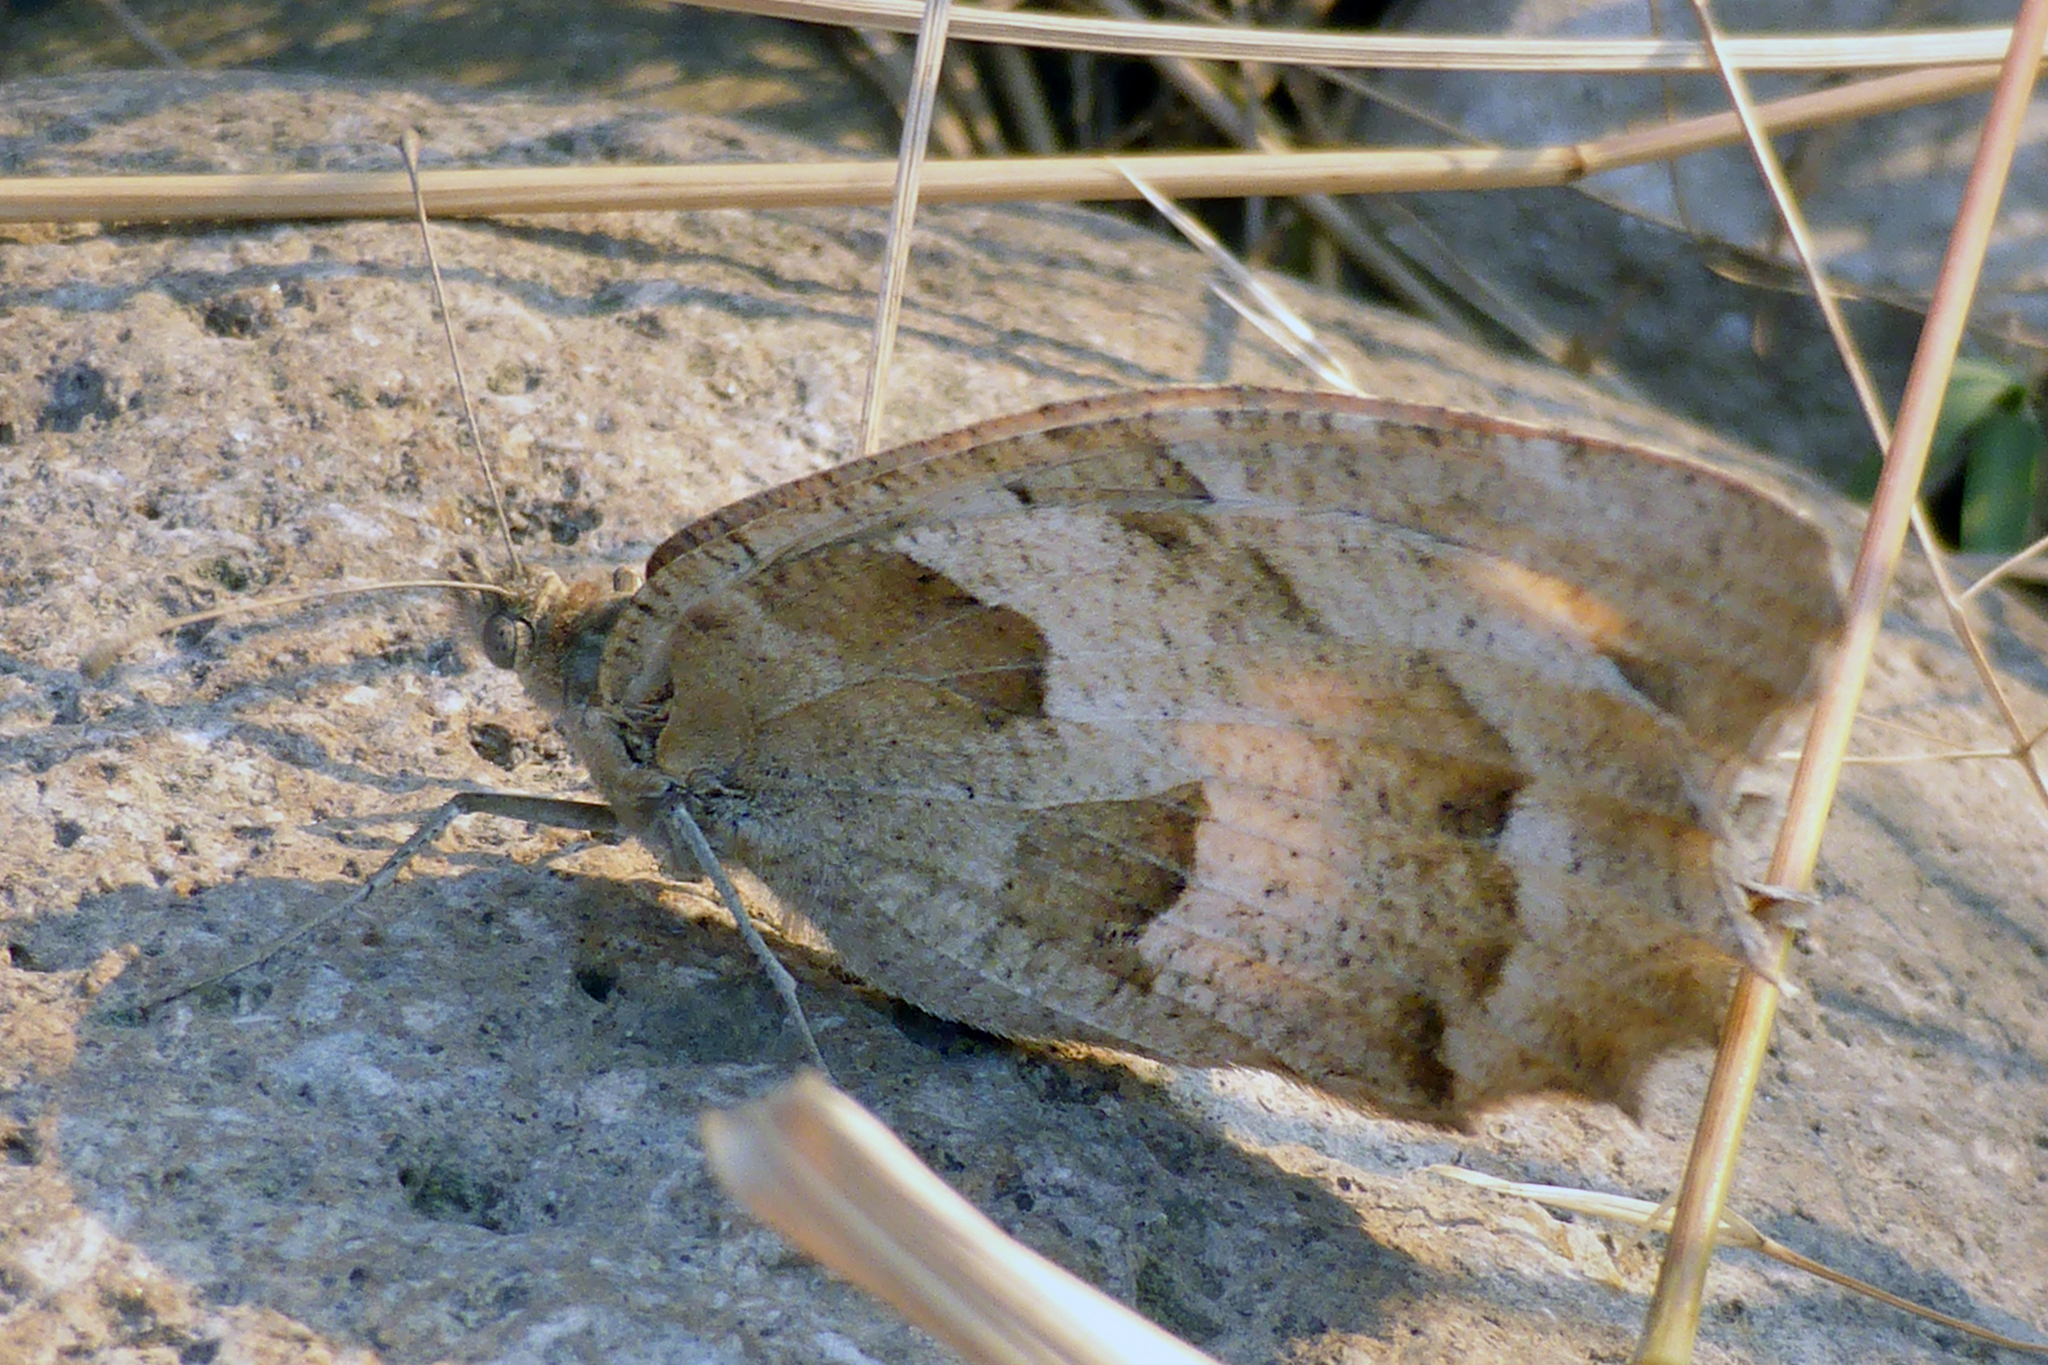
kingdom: Animalia
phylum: Arthropoda
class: Insecta
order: Lepidoptera
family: Nymphalidae
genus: Satyrus
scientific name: Satyrus briseis
